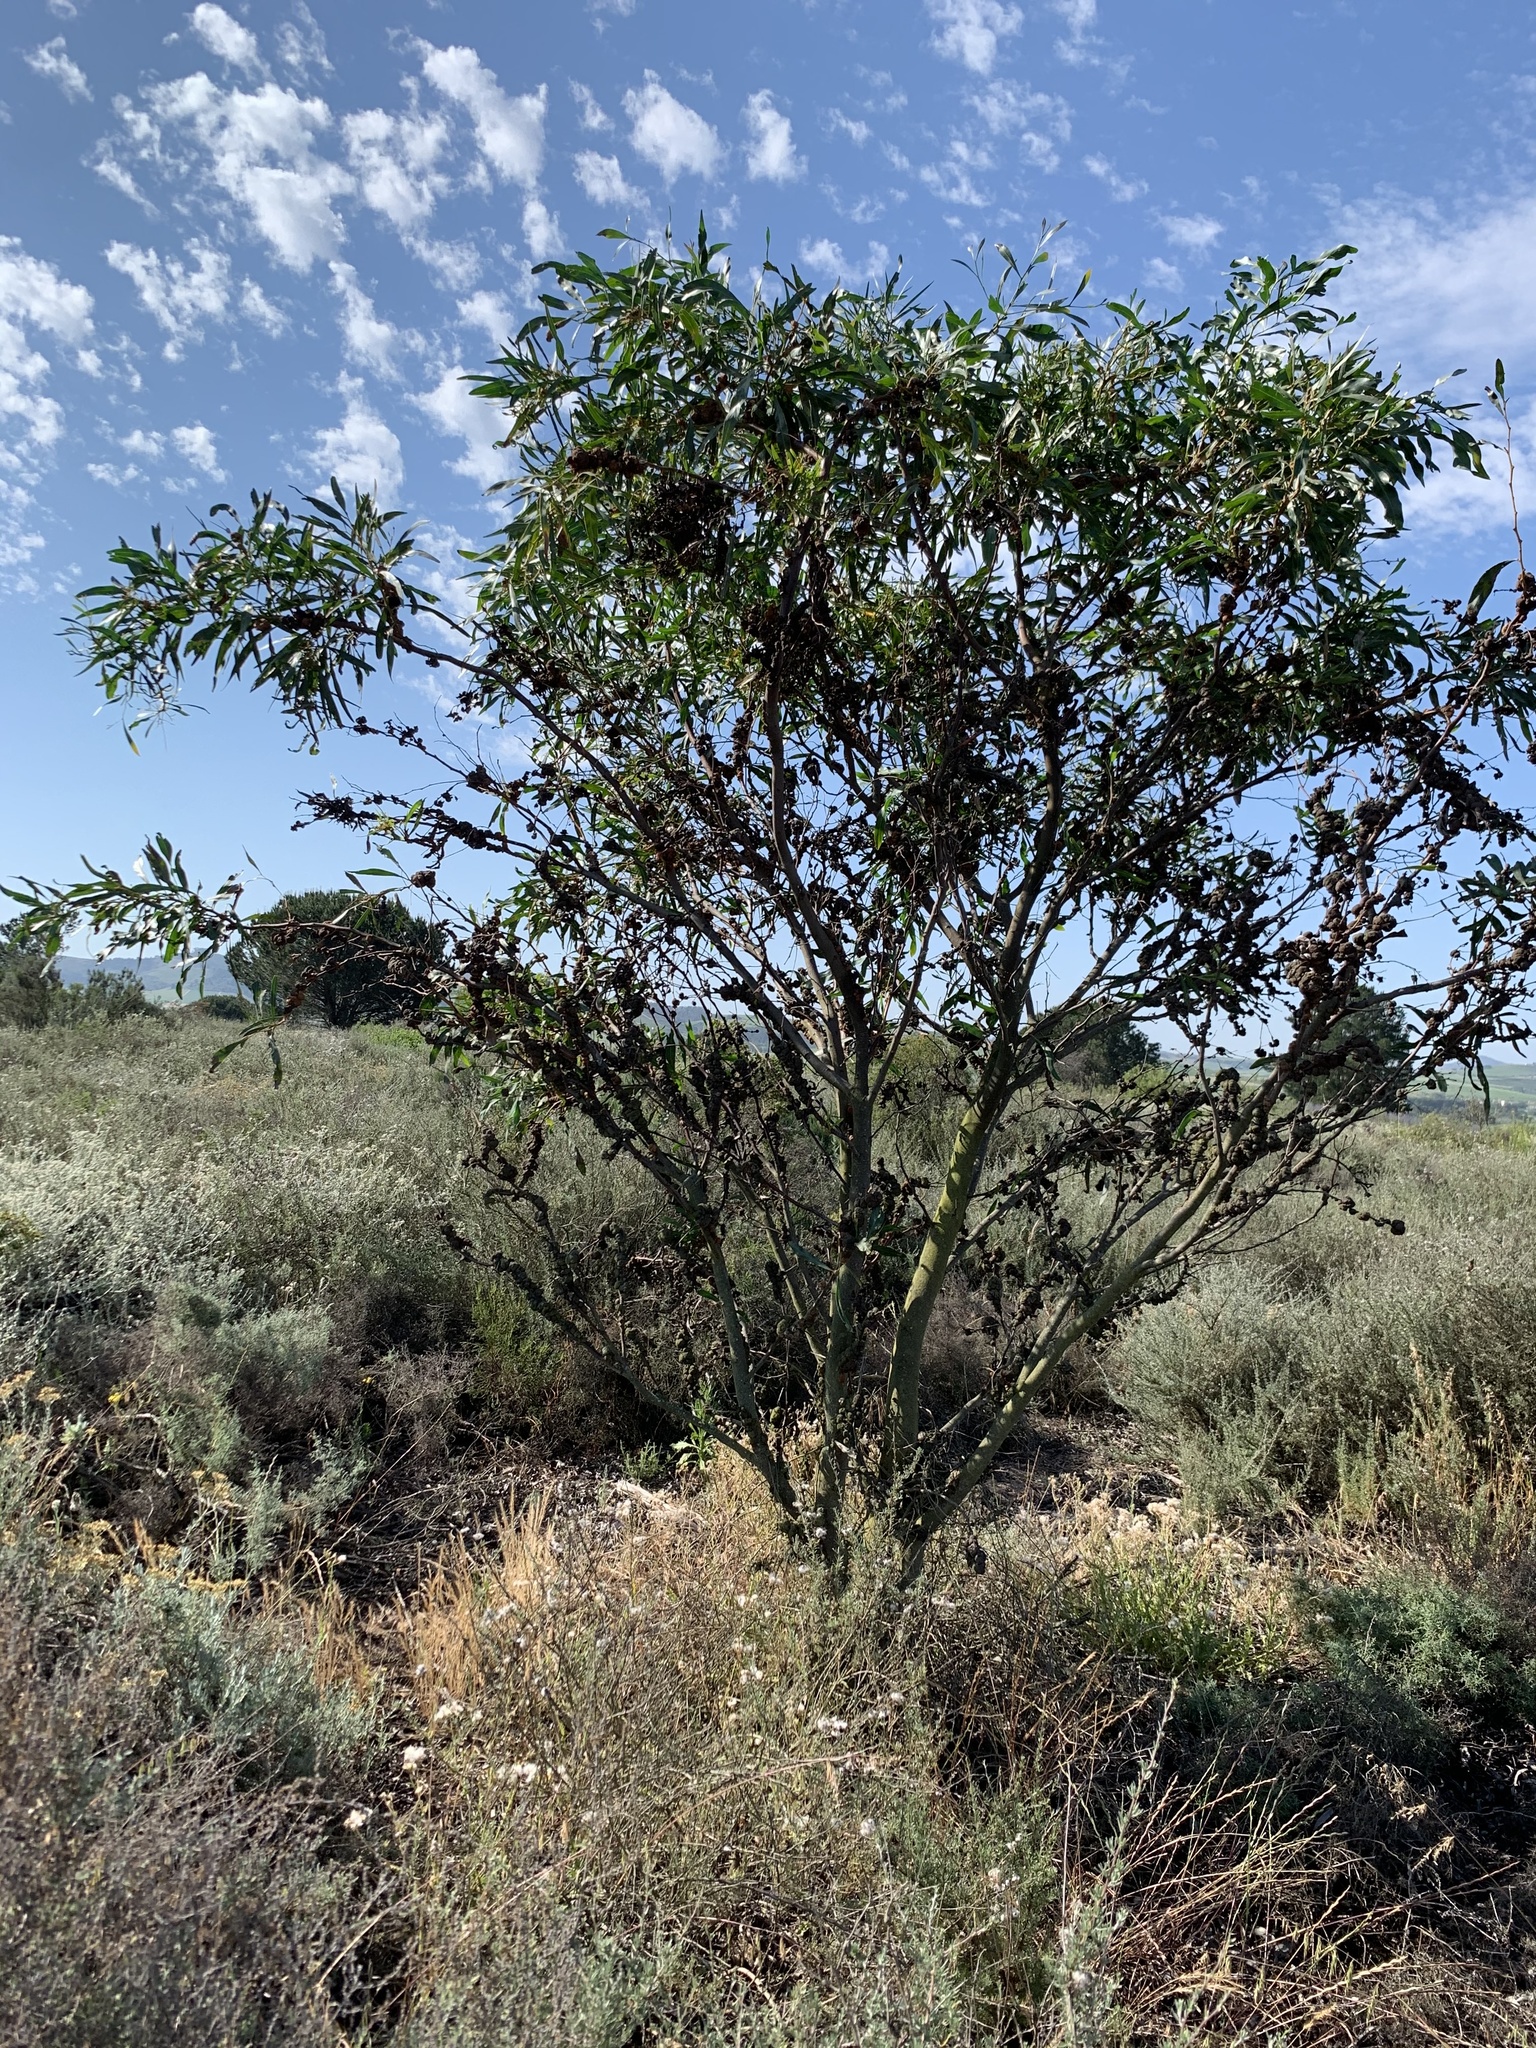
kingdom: Plantae
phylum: Tracheophyta
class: Magnoliopsida
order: Fabales
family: Fabaceae
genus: Acacia
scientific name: Acacia saligna
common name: Orange wattle
